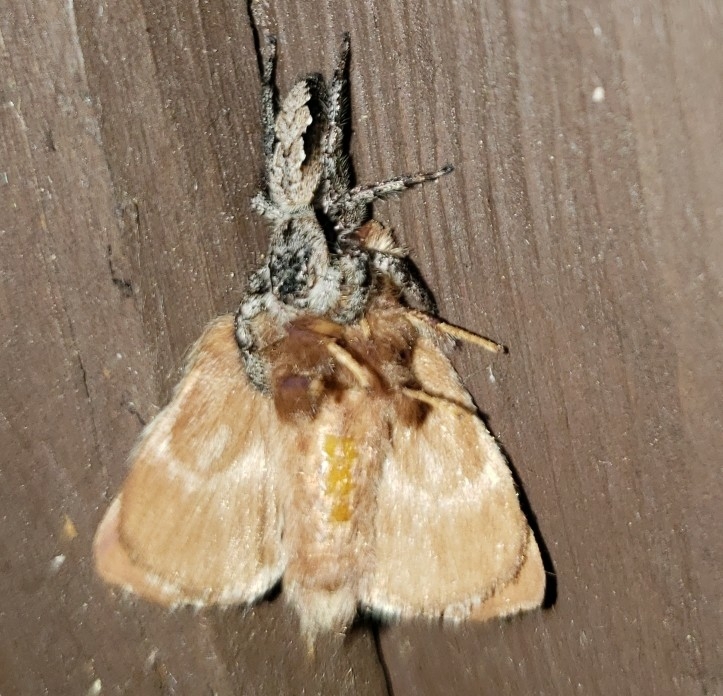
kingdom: Animalia
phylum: Arthropoda
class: Arachnida
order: Araneae
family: Salticidae
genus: Platycryptus
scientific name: Platycryptus undatus
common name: Tan jumping spider
